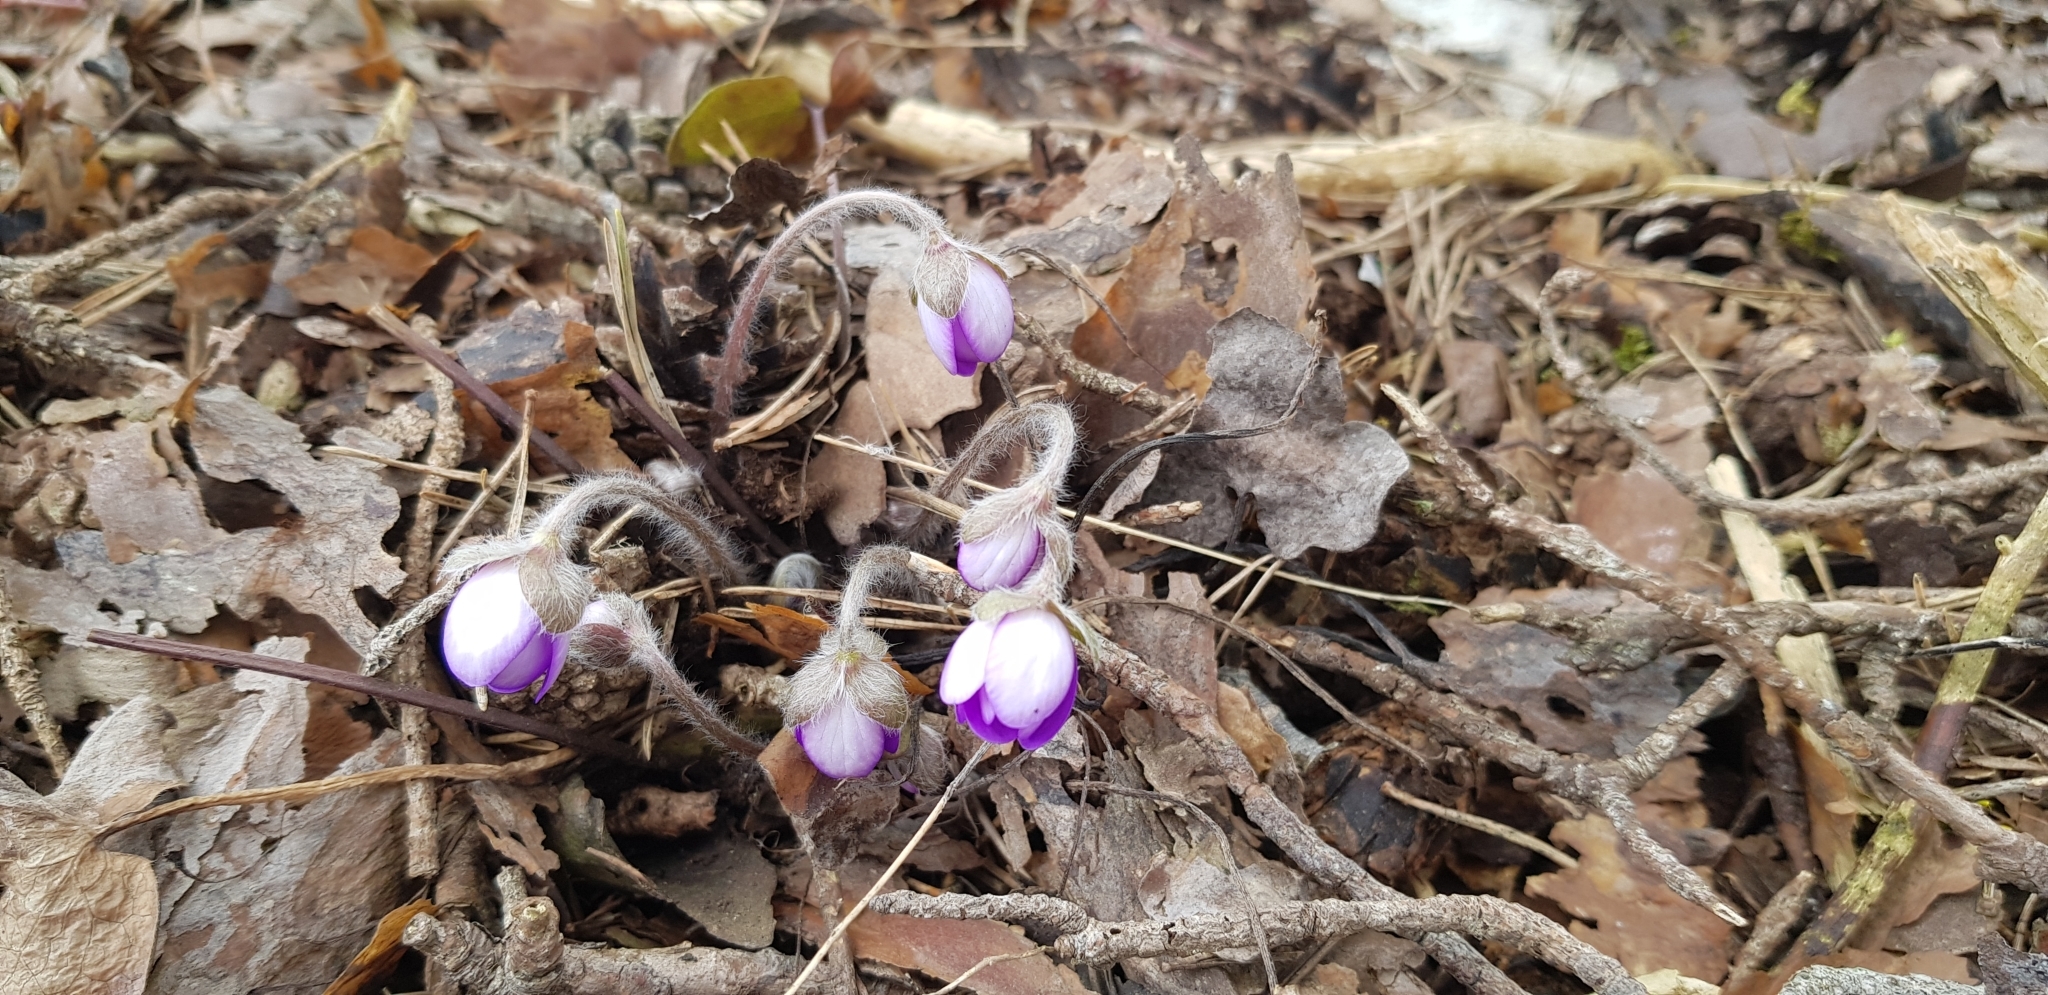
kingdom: Plantae
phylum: Tracheophyta
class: Magnoliopsida
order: Ranunculales
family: Ranunculaceae
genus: Hepatica
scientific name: Hepatica nobilis
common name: Liverleaf
